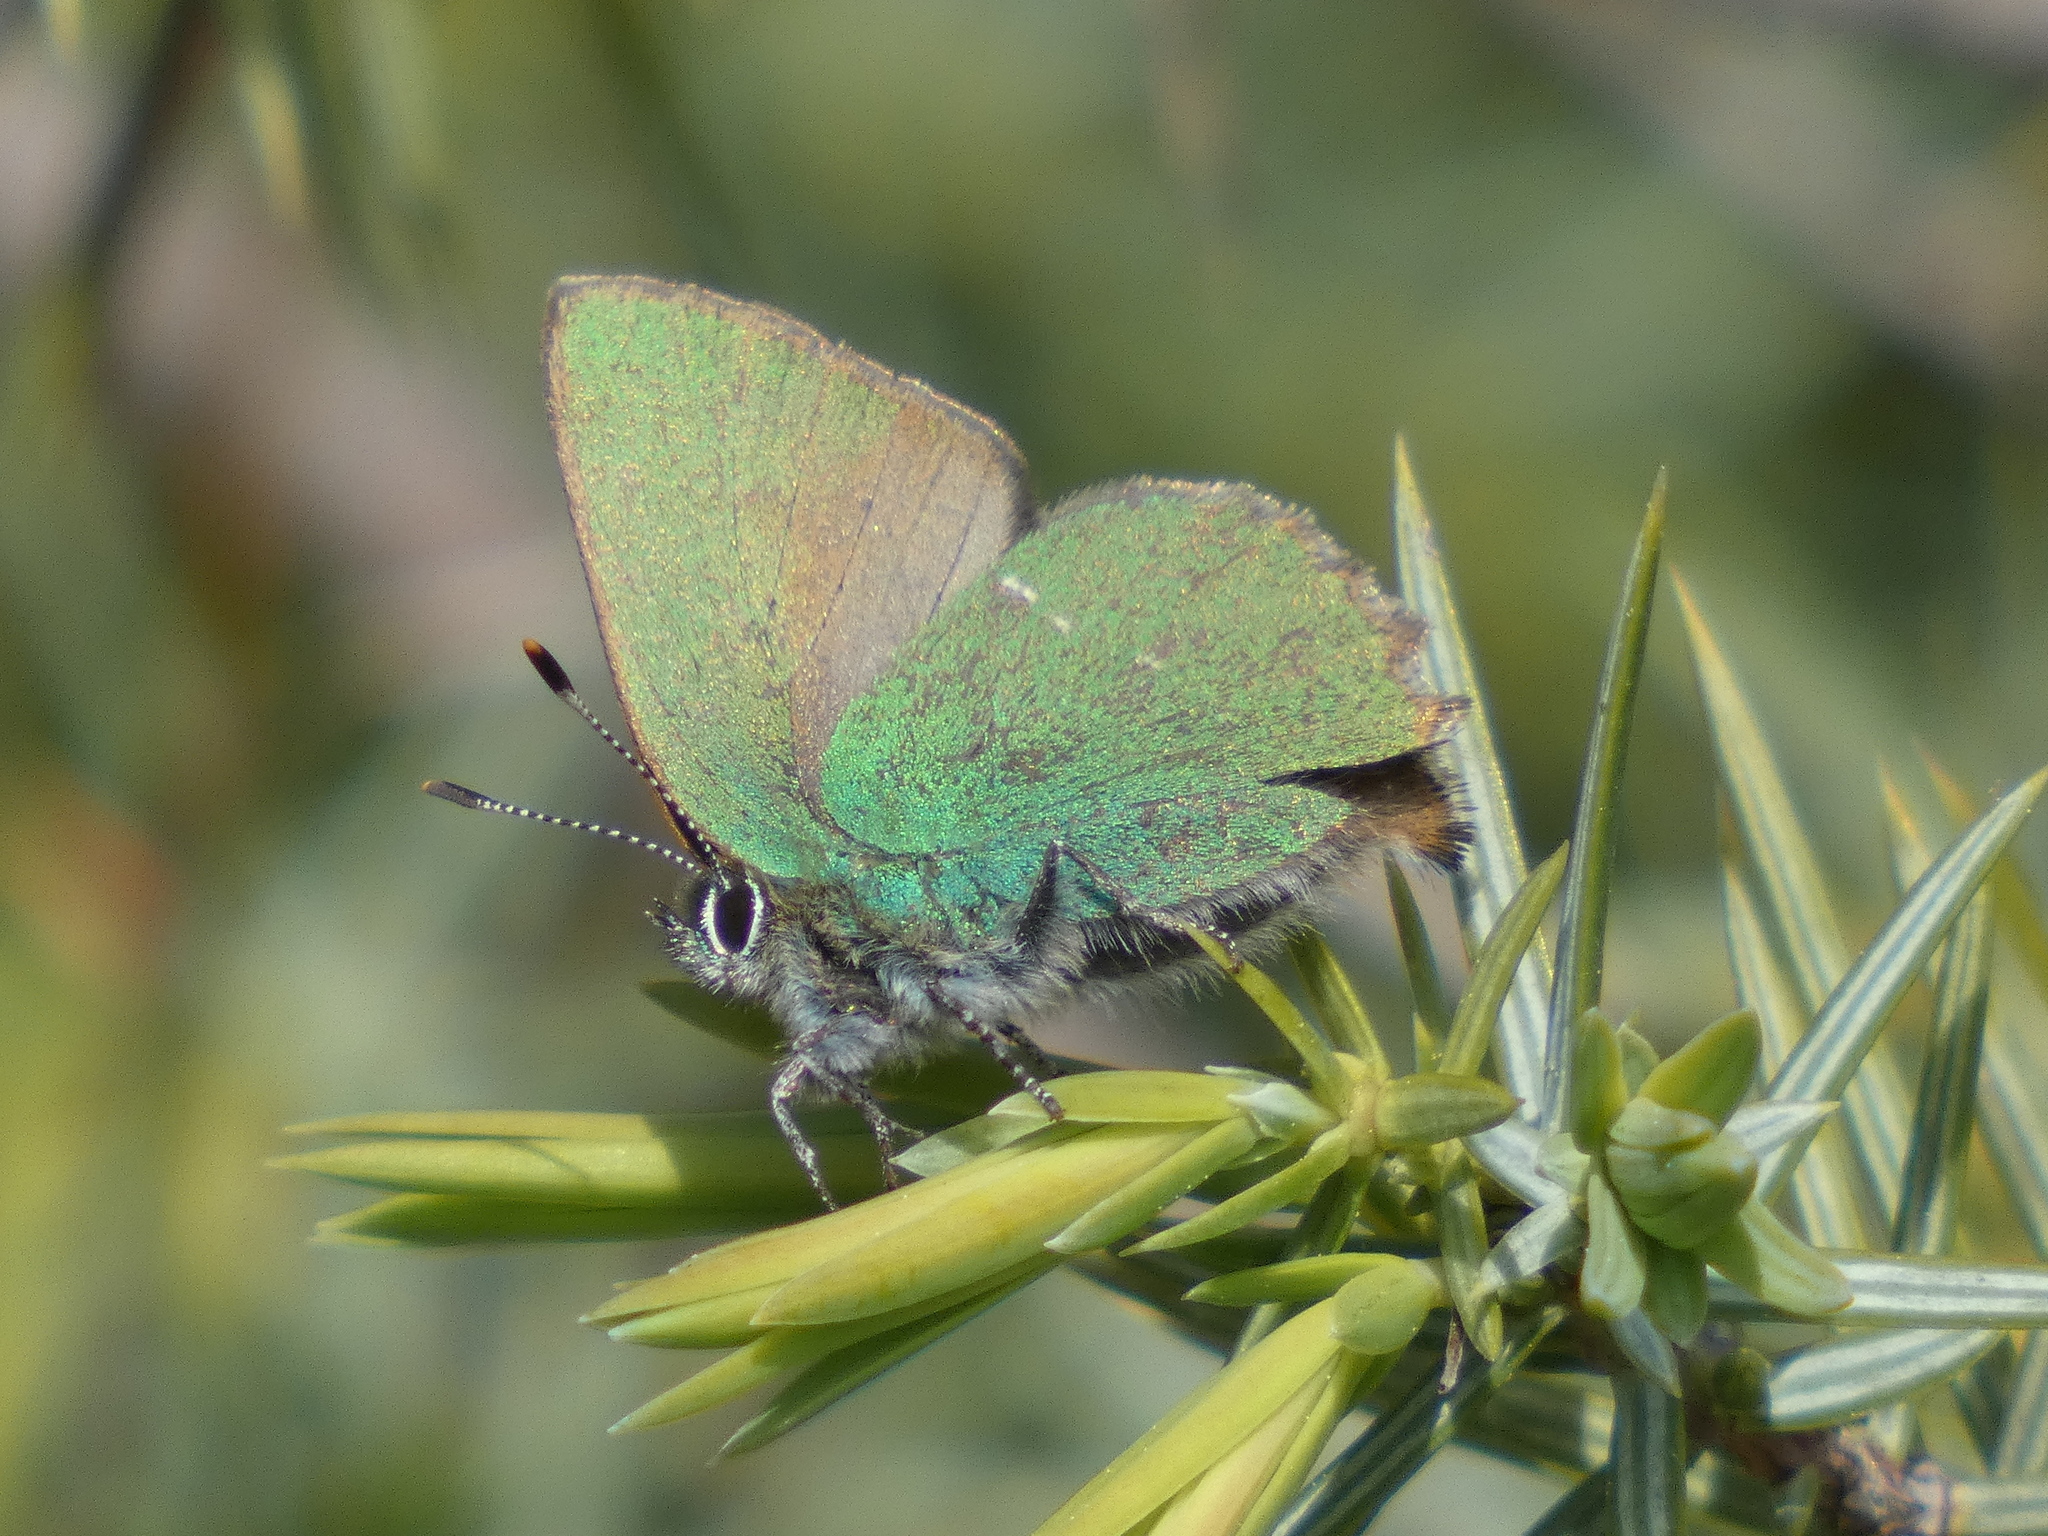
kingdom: Animalia
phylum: Arthropoda
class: Insecta
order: Lepidoptera
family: Lycaenidae
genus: Callophrys
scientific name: Callophrys rubi
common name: Green hairstreak
